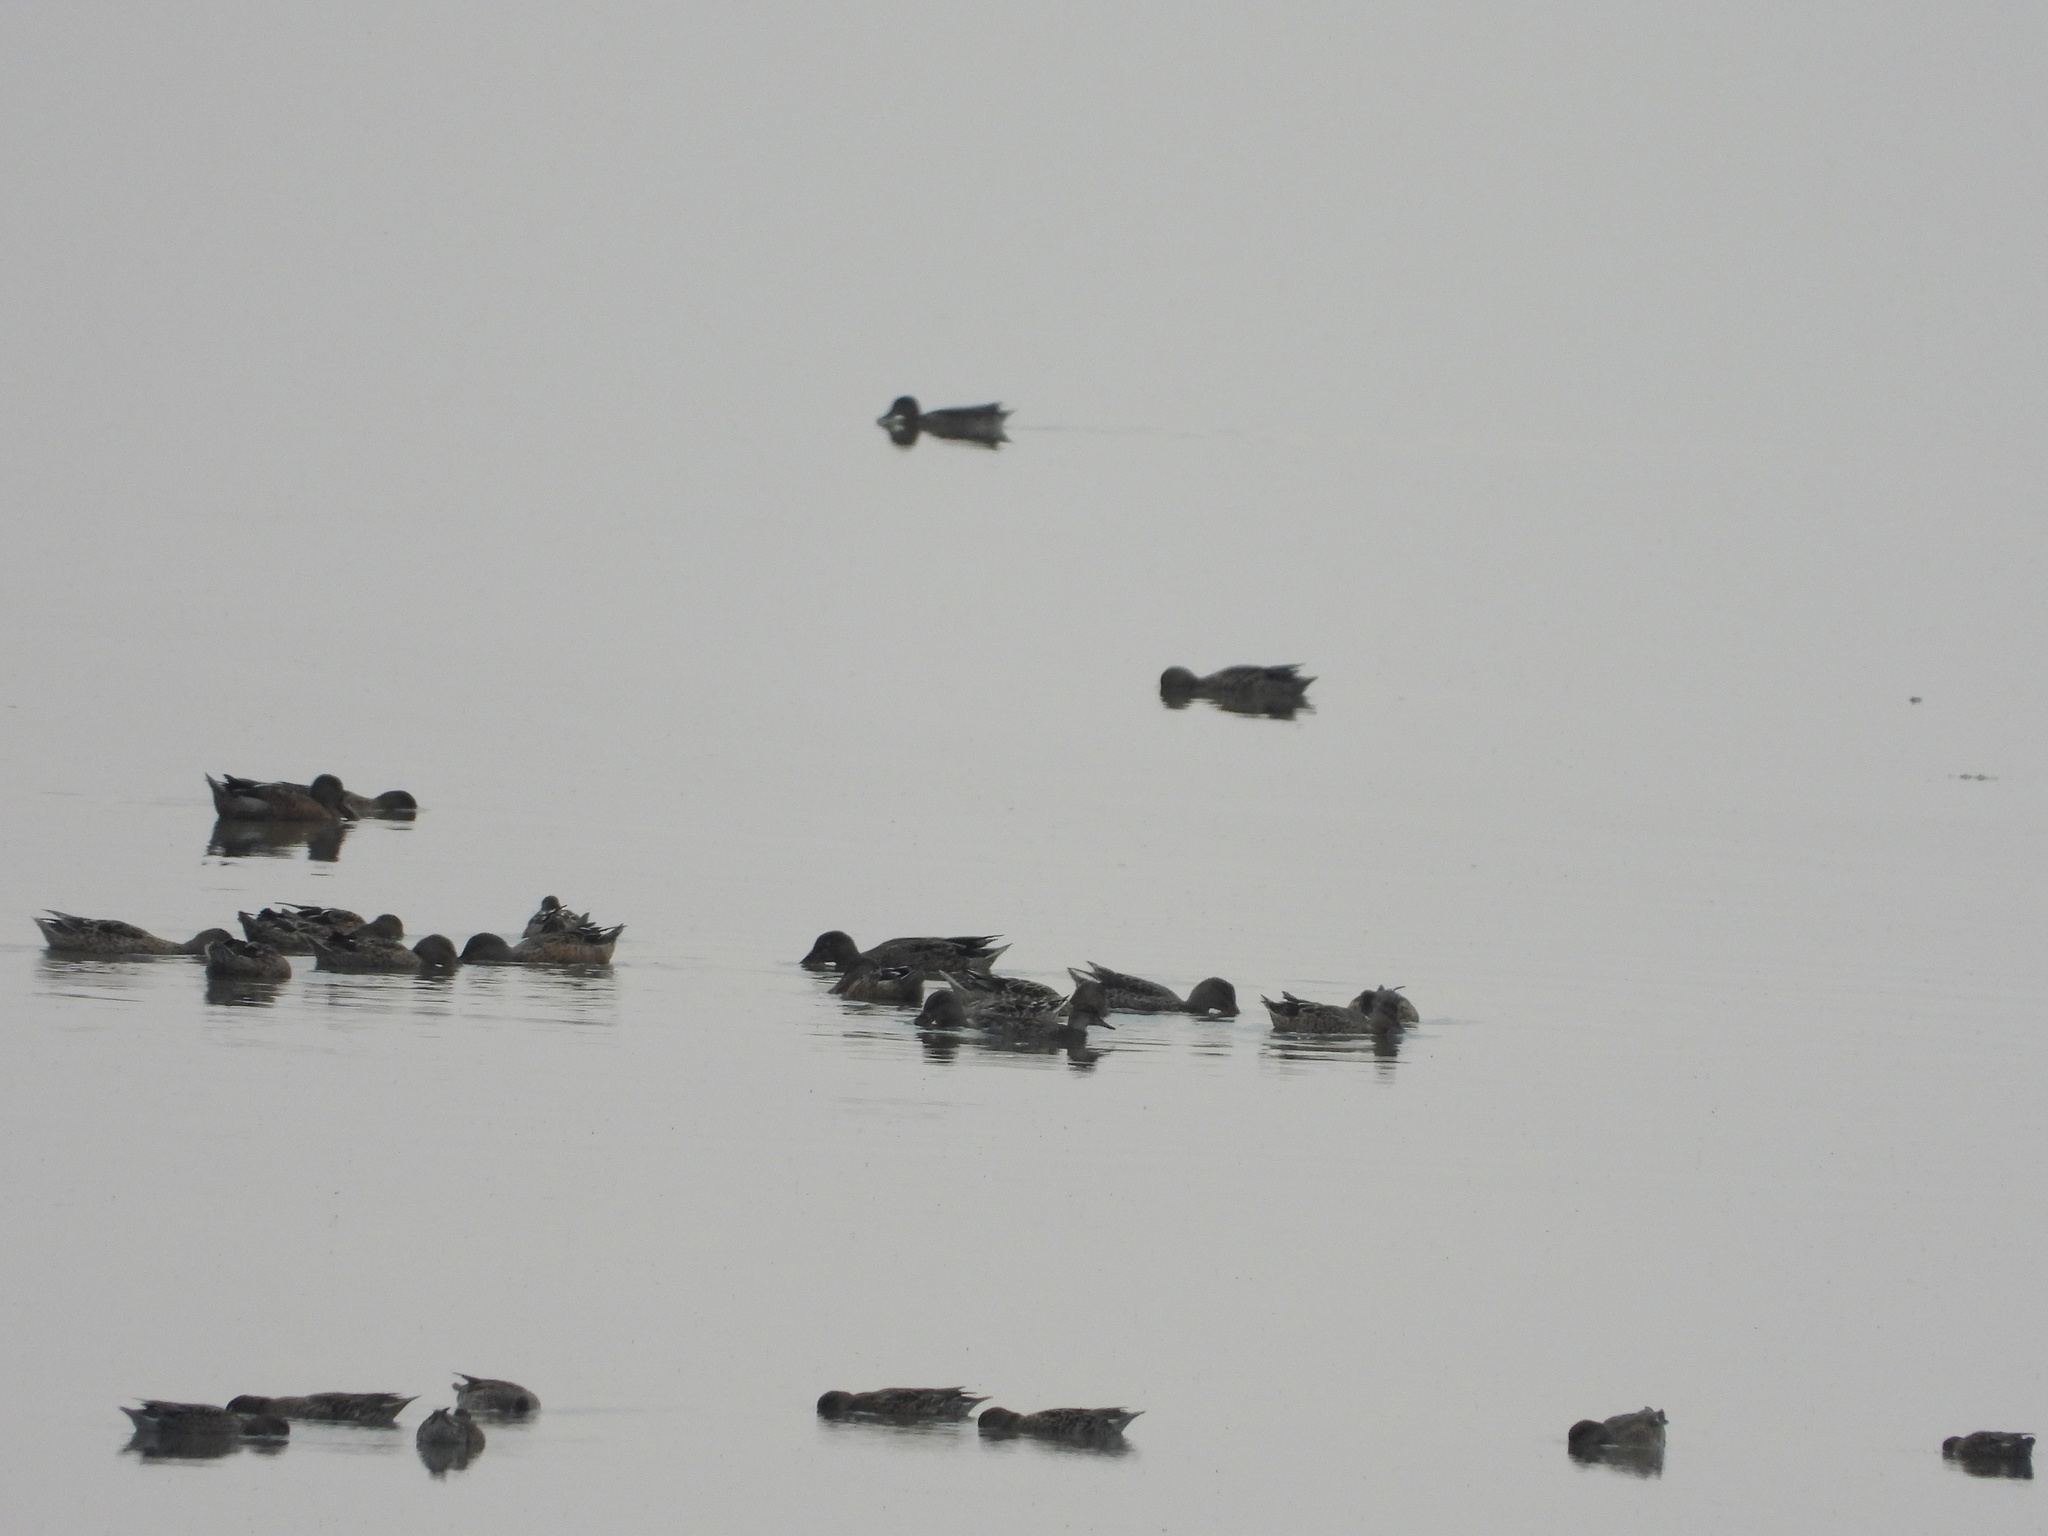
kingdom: Animalia
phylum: Chordata
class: Aves
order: Anseriformes
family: Anatidae
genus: Spatula
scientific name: Spatula clypeata
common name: Northern shoveler
